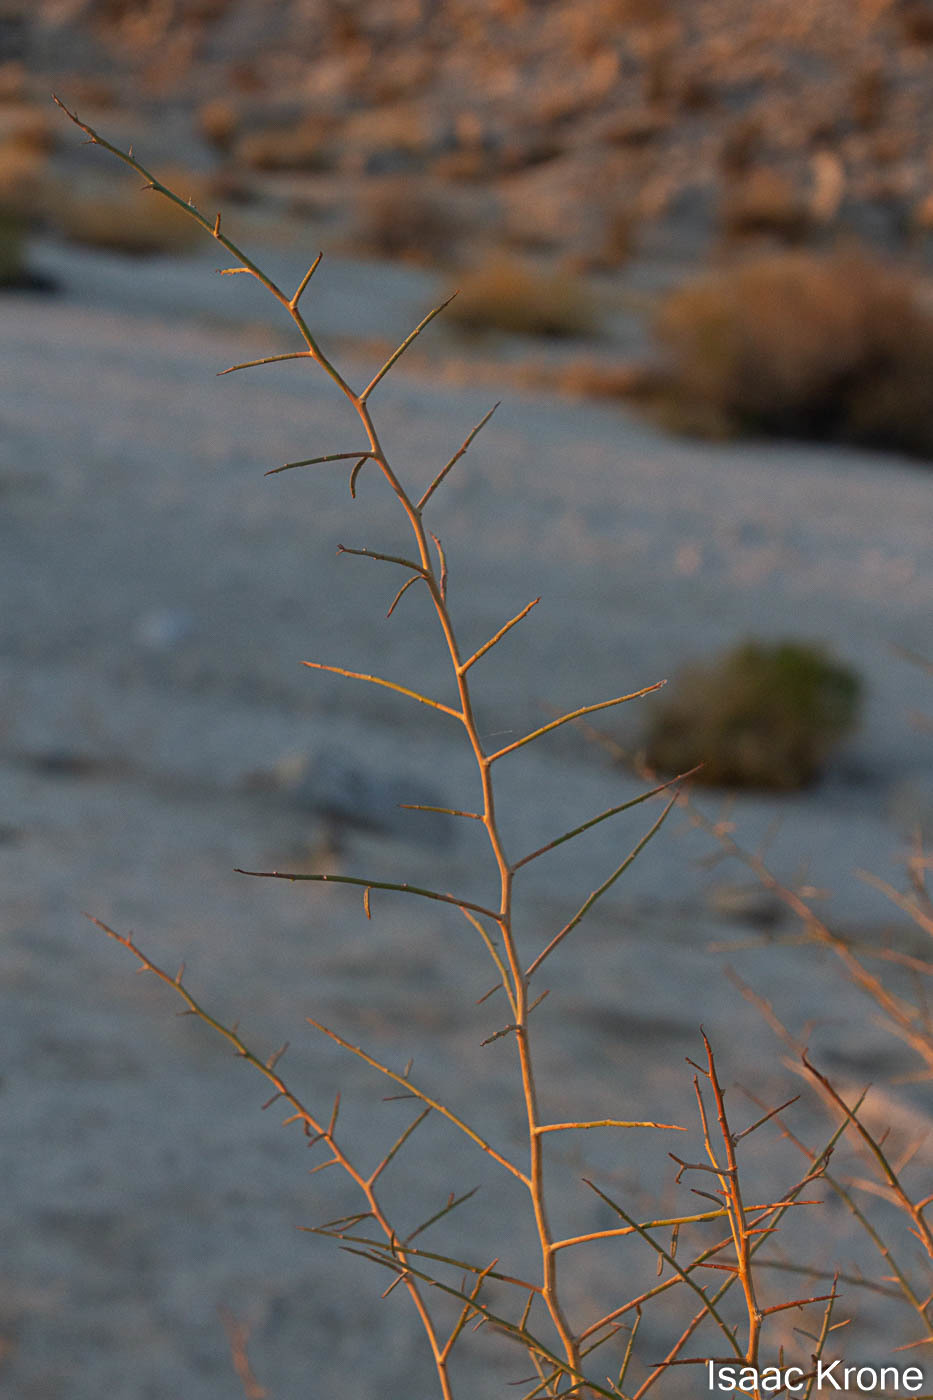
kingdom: Plantae
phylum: Tracheophyta
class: Magnoliopsida
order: Fabales
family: Fabaceae
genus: Psorothamnus
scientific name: Psorothamnus spinosus
